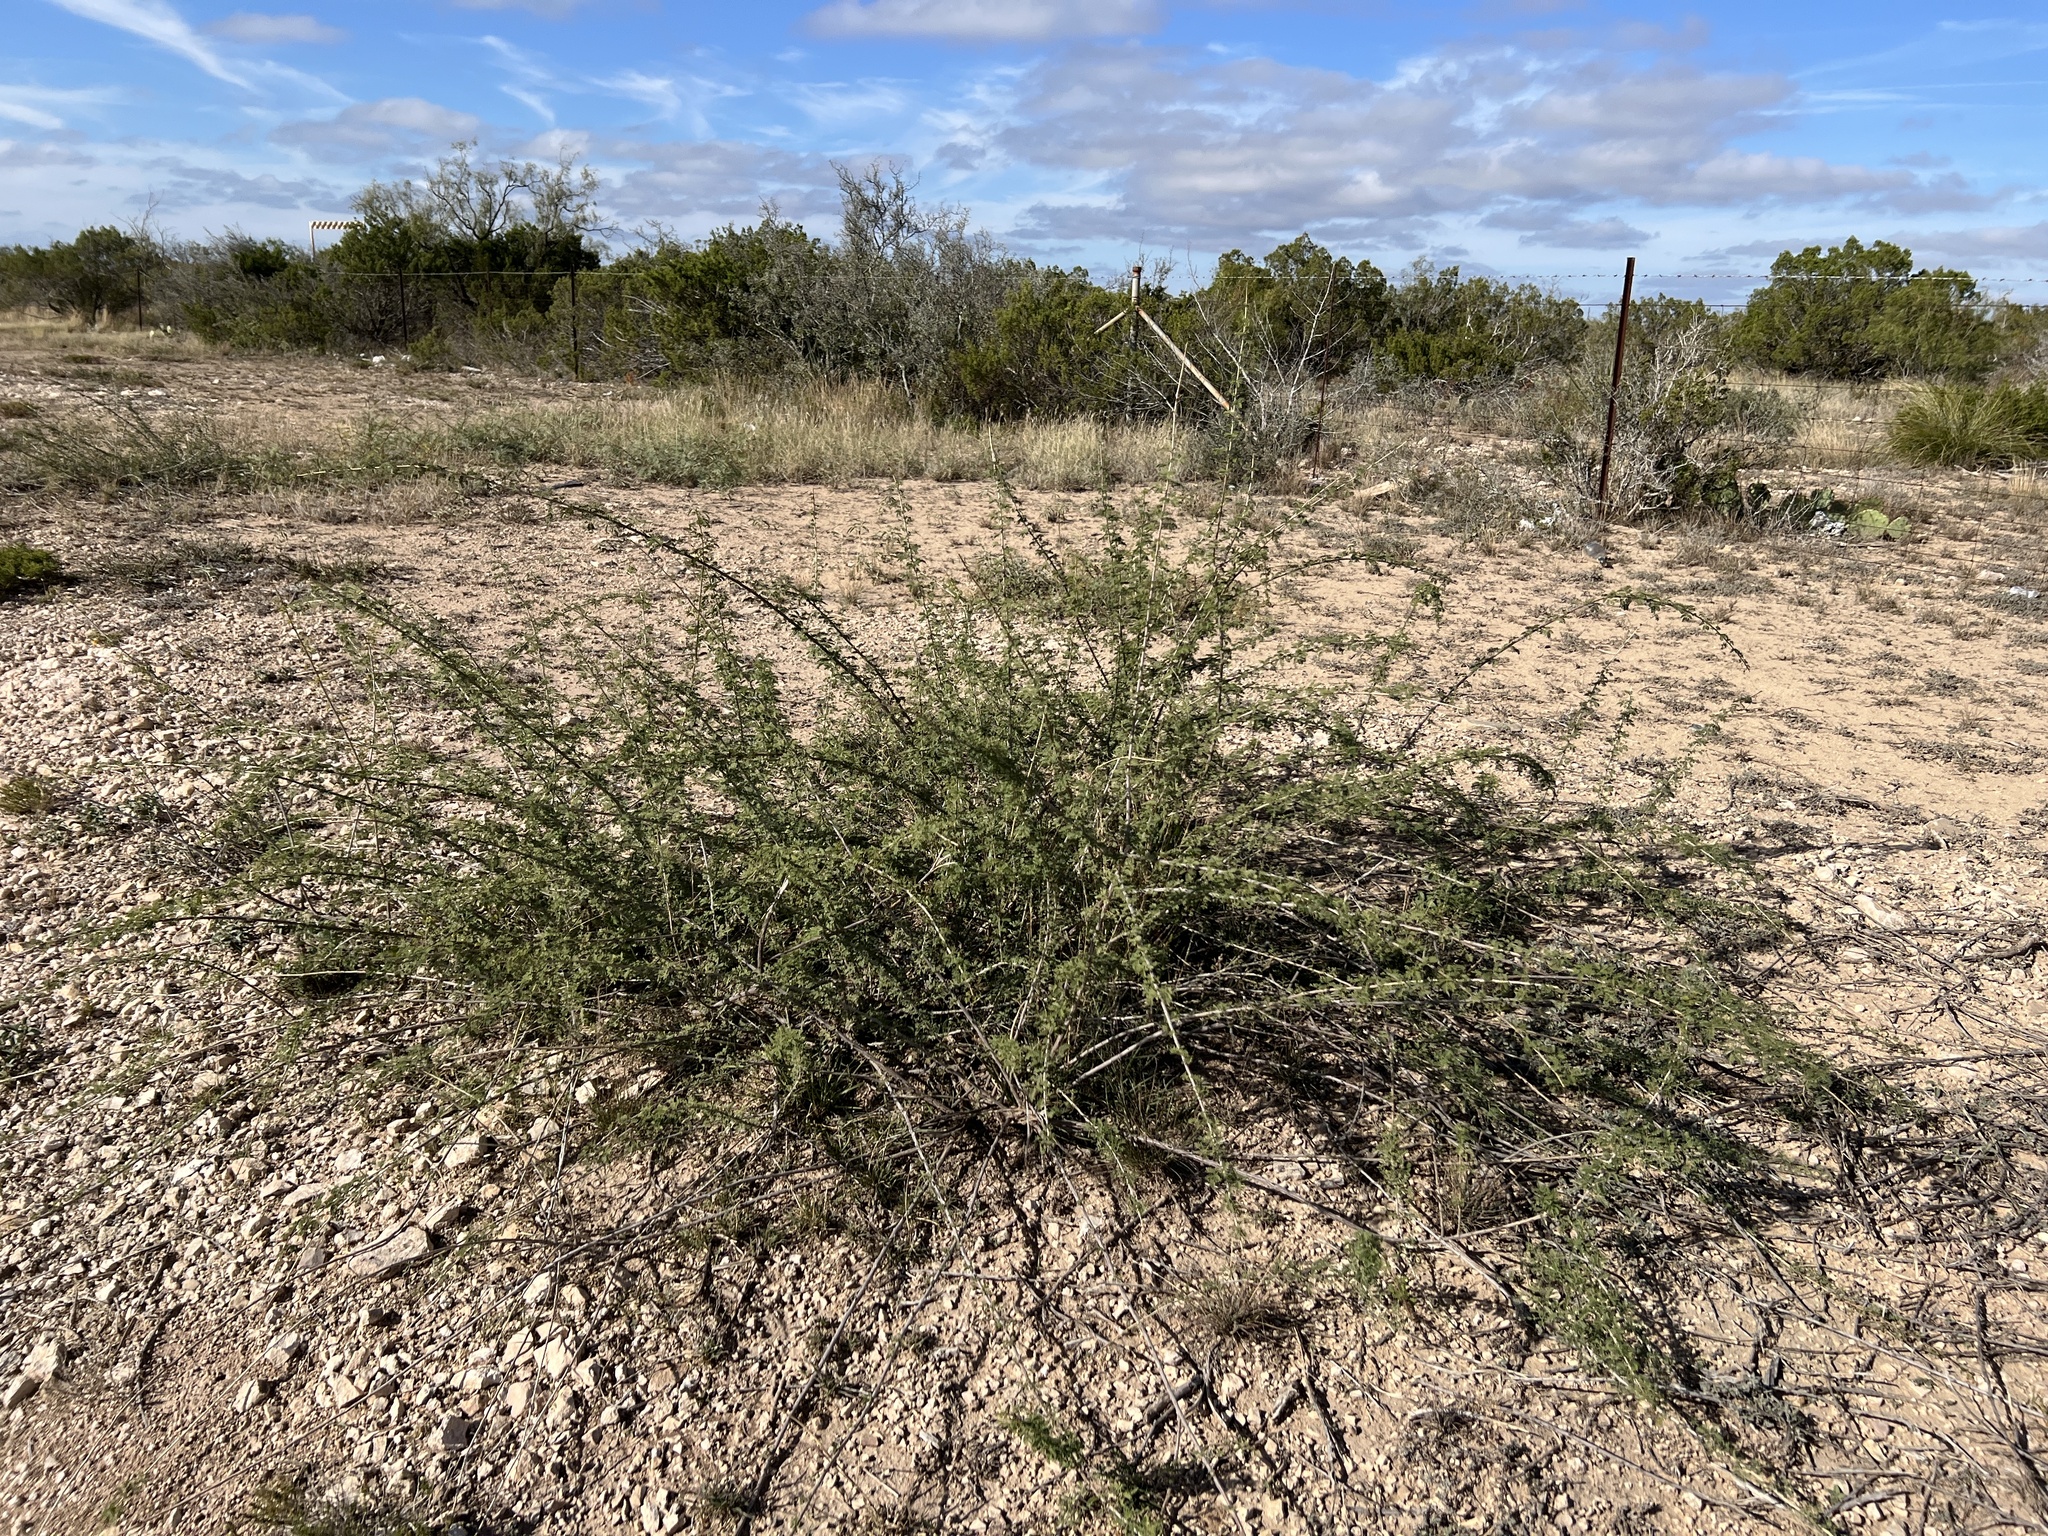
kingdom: Plantae
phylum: Tracheophyta
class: Magnoliopsida
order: Fabales
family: Fabaceae
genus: Senegalia
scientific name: Senegalia greggii
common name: Texas-mimosa
